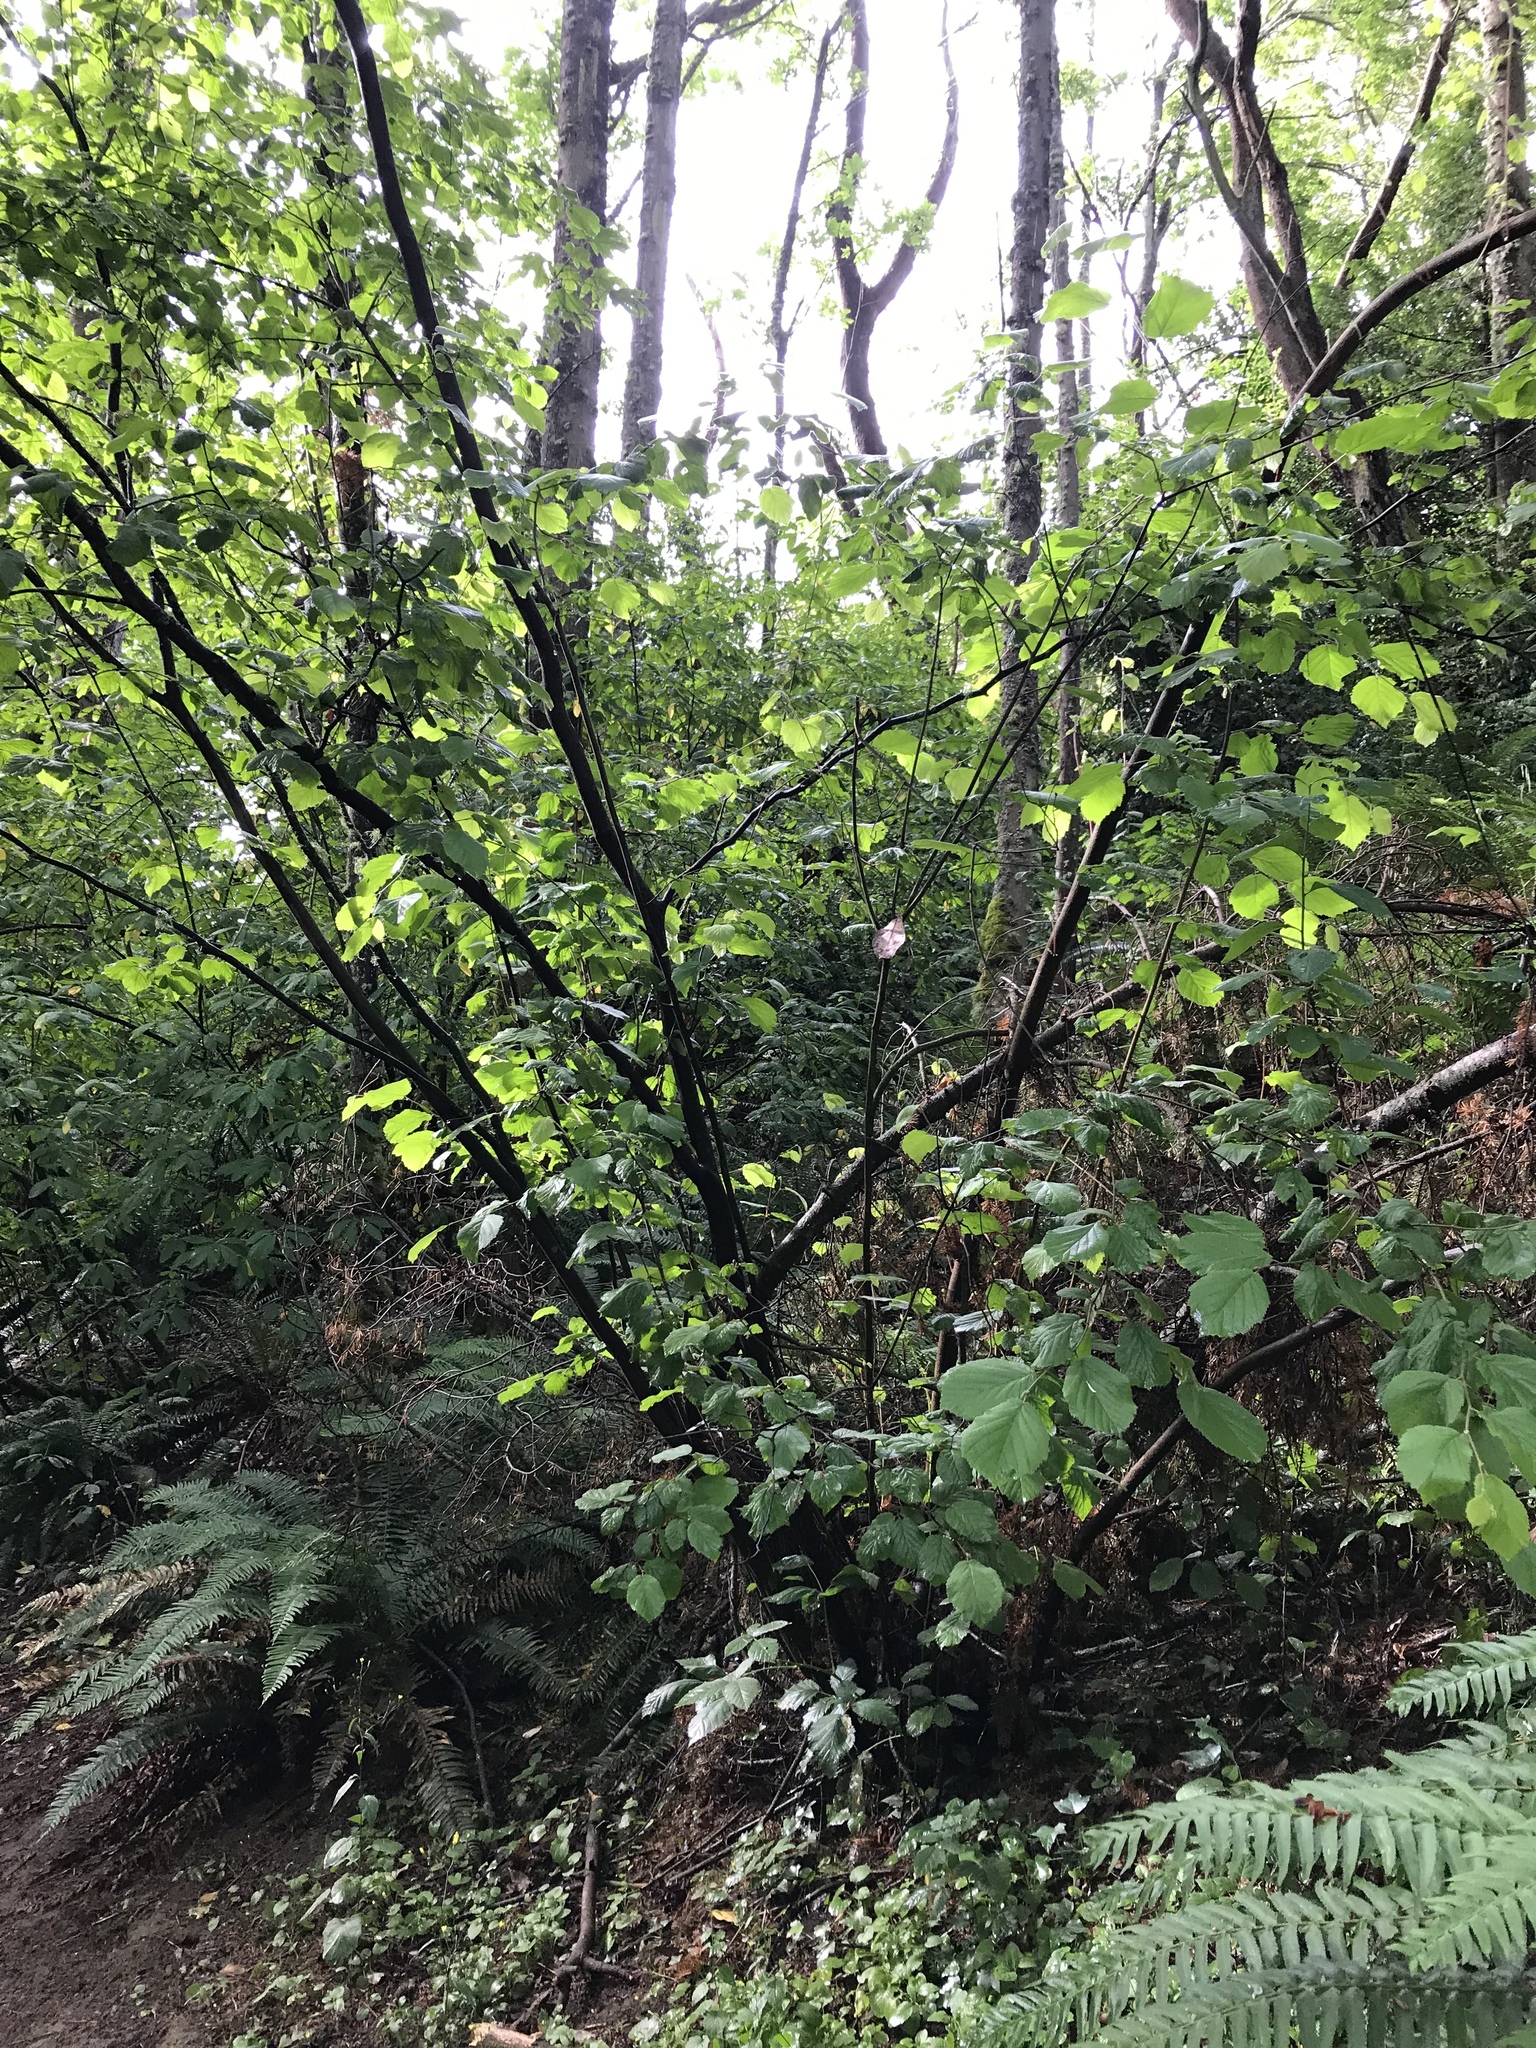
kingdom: Plantae
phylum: Tracheophyta
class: Magnoliopsida
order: Fagales
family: Betulaceae
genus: Corylus
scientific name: Corylus cornuta
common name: Beaked hazel
